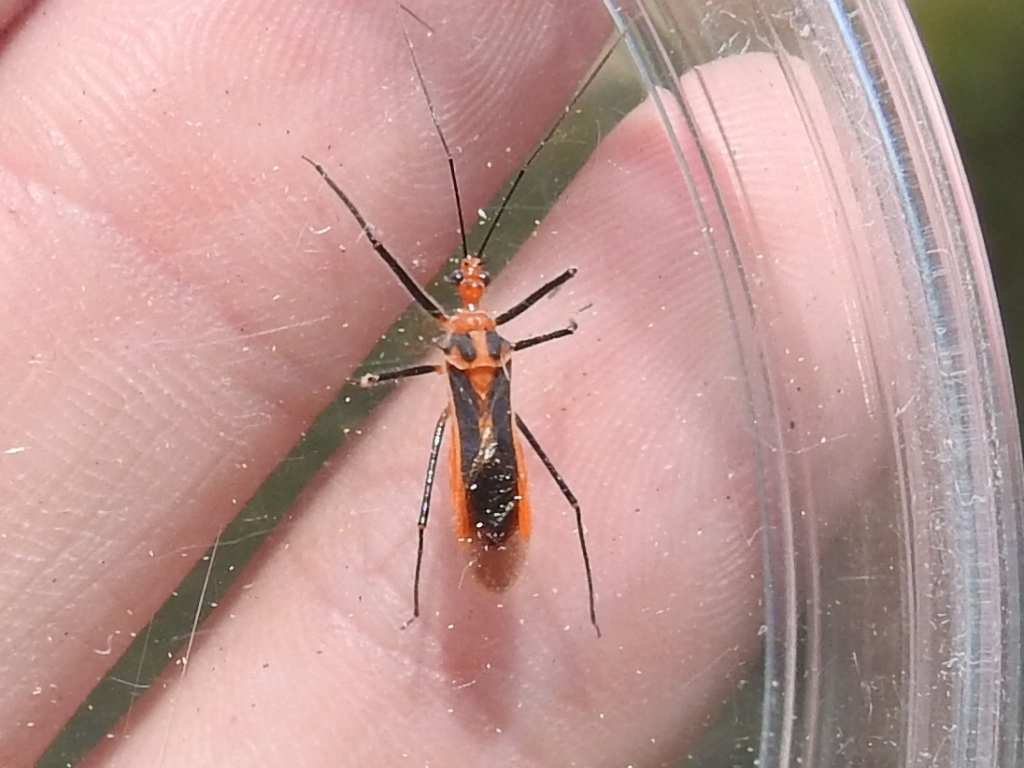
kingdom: Animalia
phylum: Arthropoda
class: Insecta
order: Hemiptera
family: Reduviidae
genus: Repipta
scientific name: Repipta taurus
